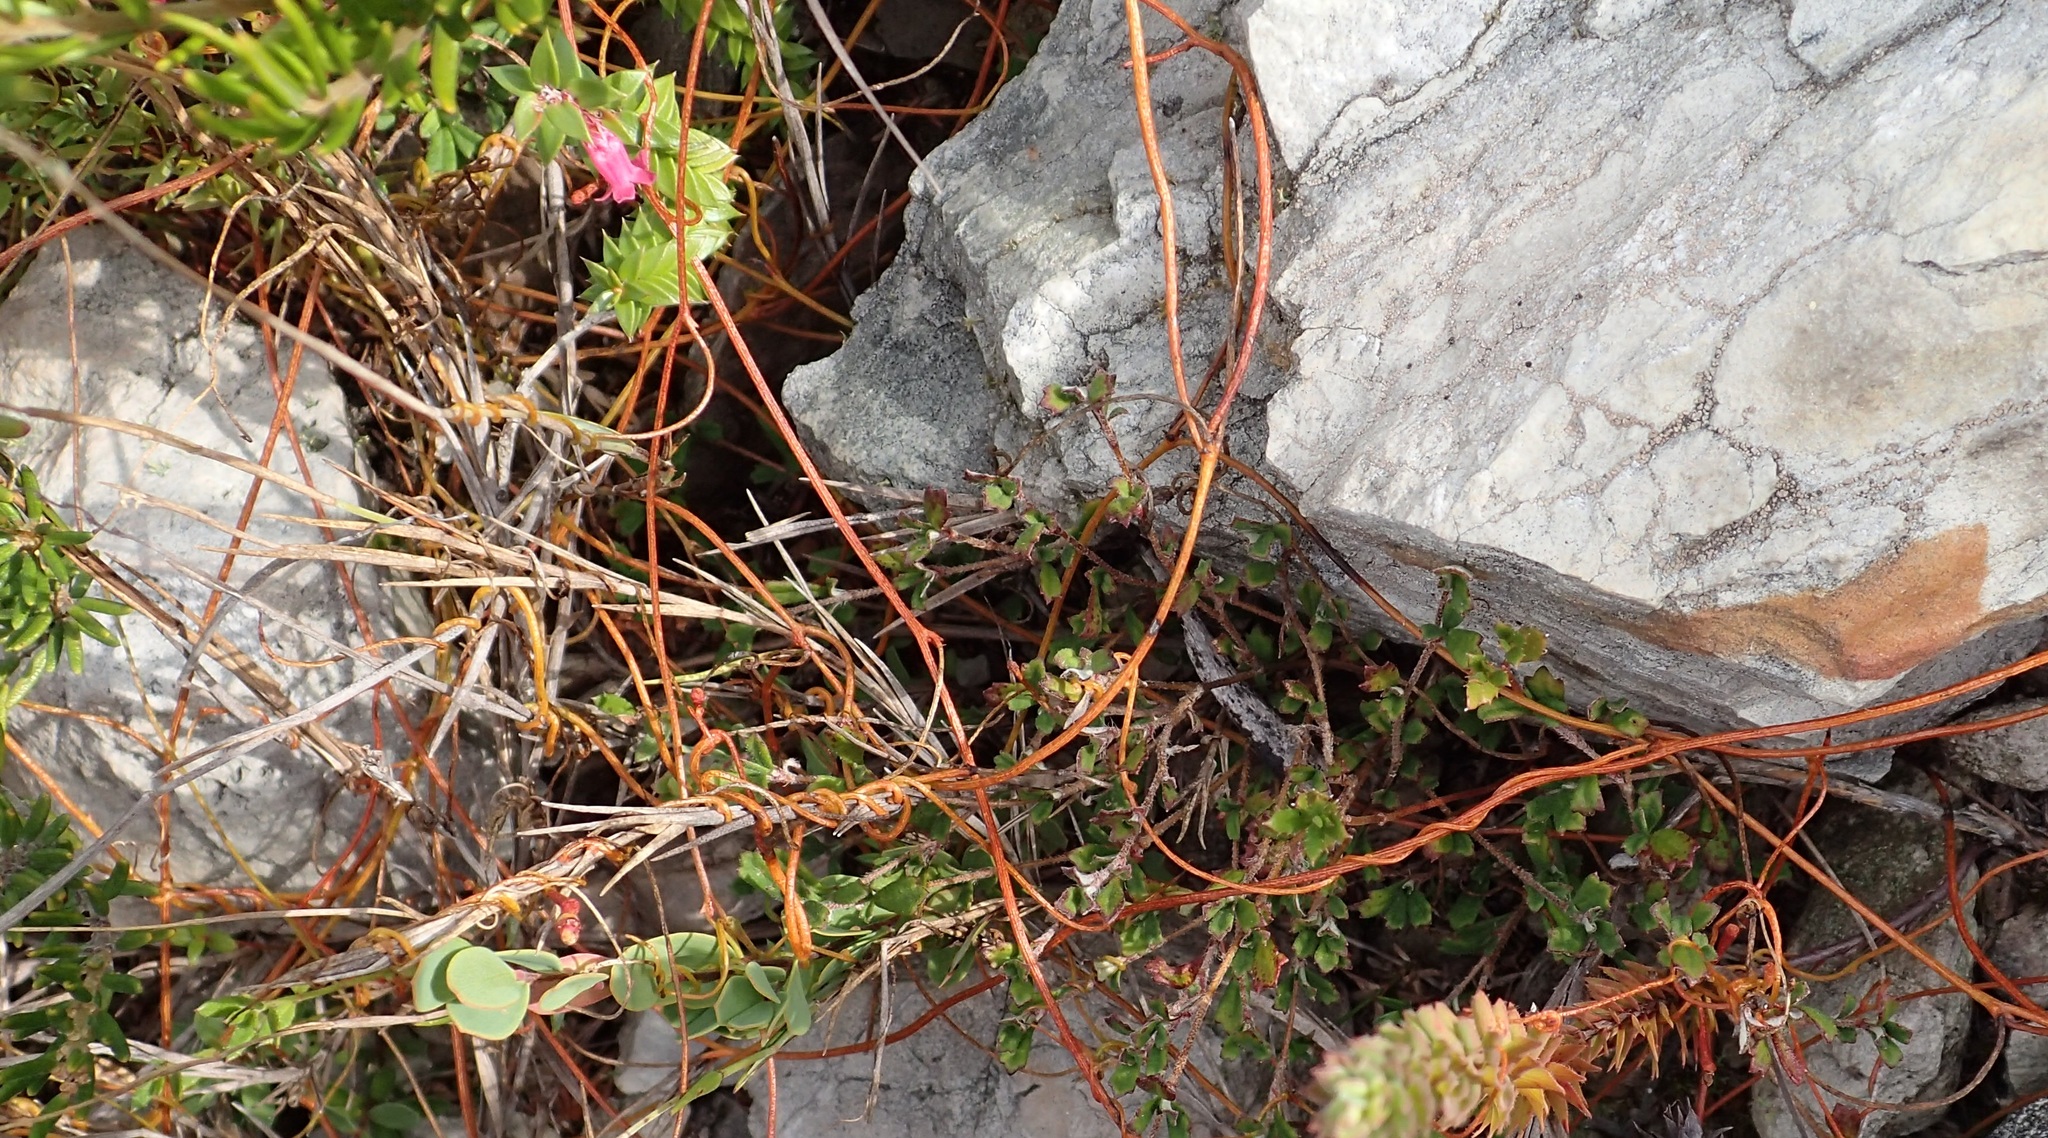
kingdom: Plantae
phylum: Tracheophyta
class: Magnoliopsida
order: Laurales
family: Lauraceae
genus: Cassytha
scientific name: Cassytha glabella
